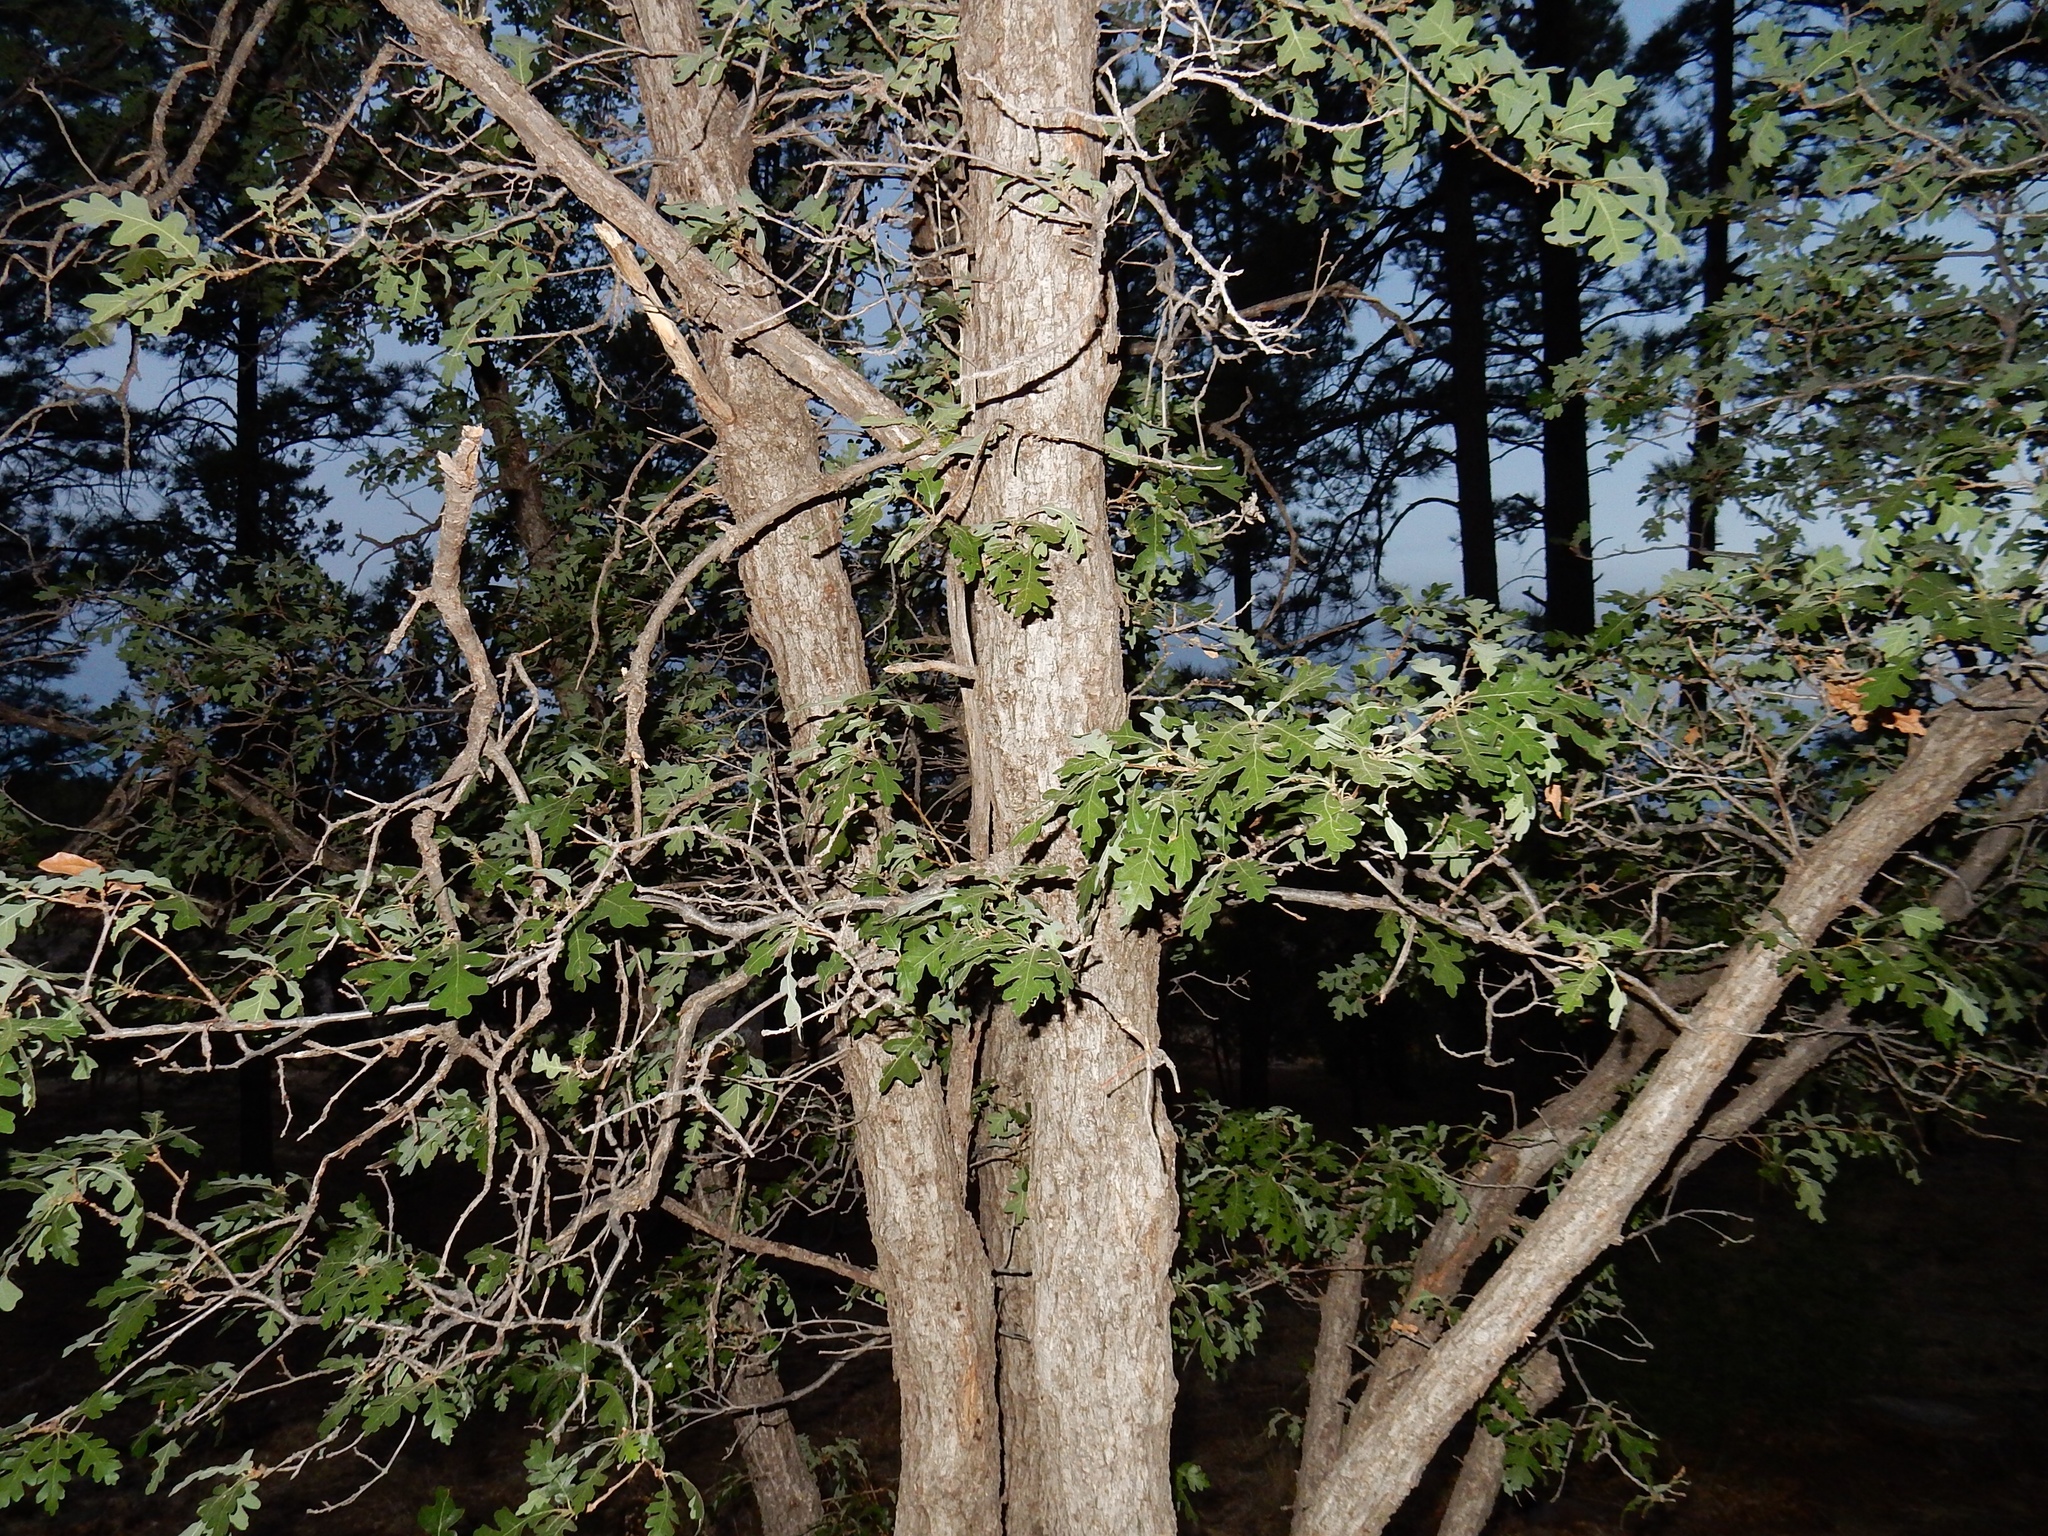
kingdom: Plantae
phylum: Tracheophyta
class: Magnoliopsida
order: Fagales
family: Fagaceae
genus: Quercus
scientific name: Quercus gambelii
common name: Gambel oak
